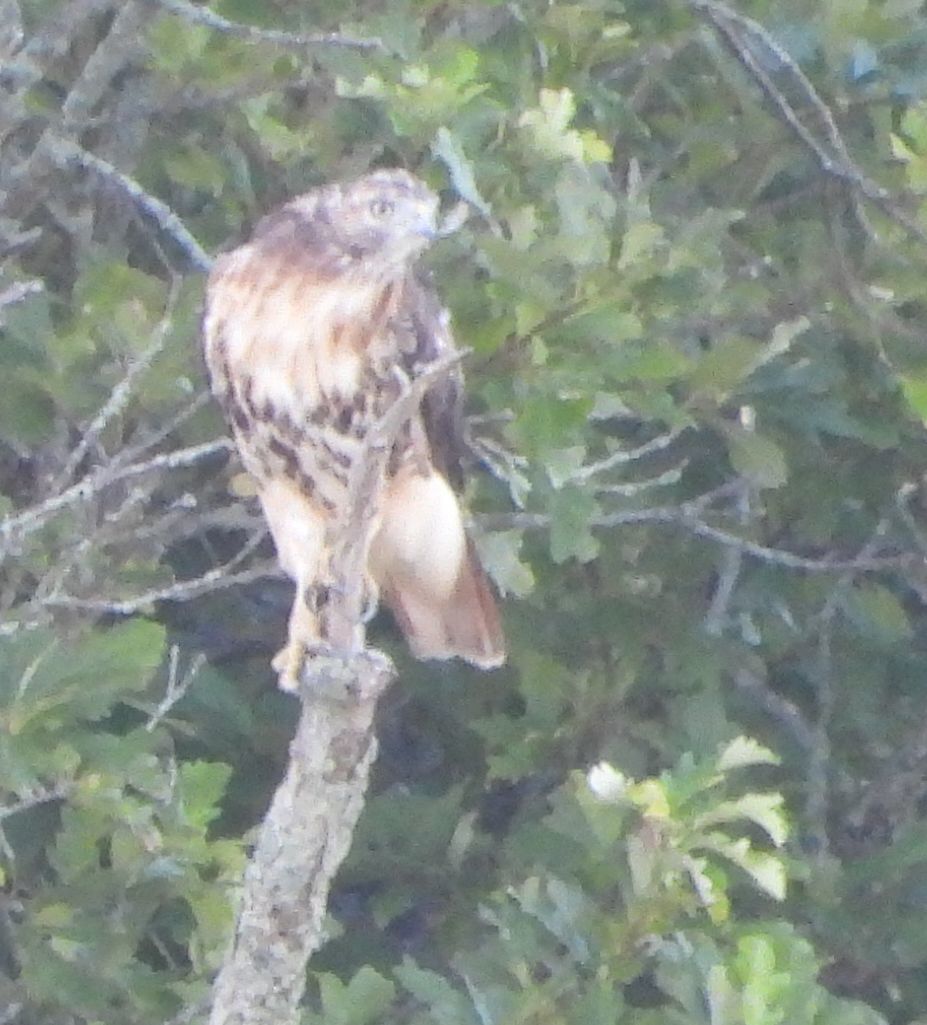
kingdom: Animalia
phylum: Chordata
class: Aves
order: Accipitriformes
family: Accipitridae
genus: Buteo
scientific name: Buteo jamaicensis
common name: Red-tailed hawk
